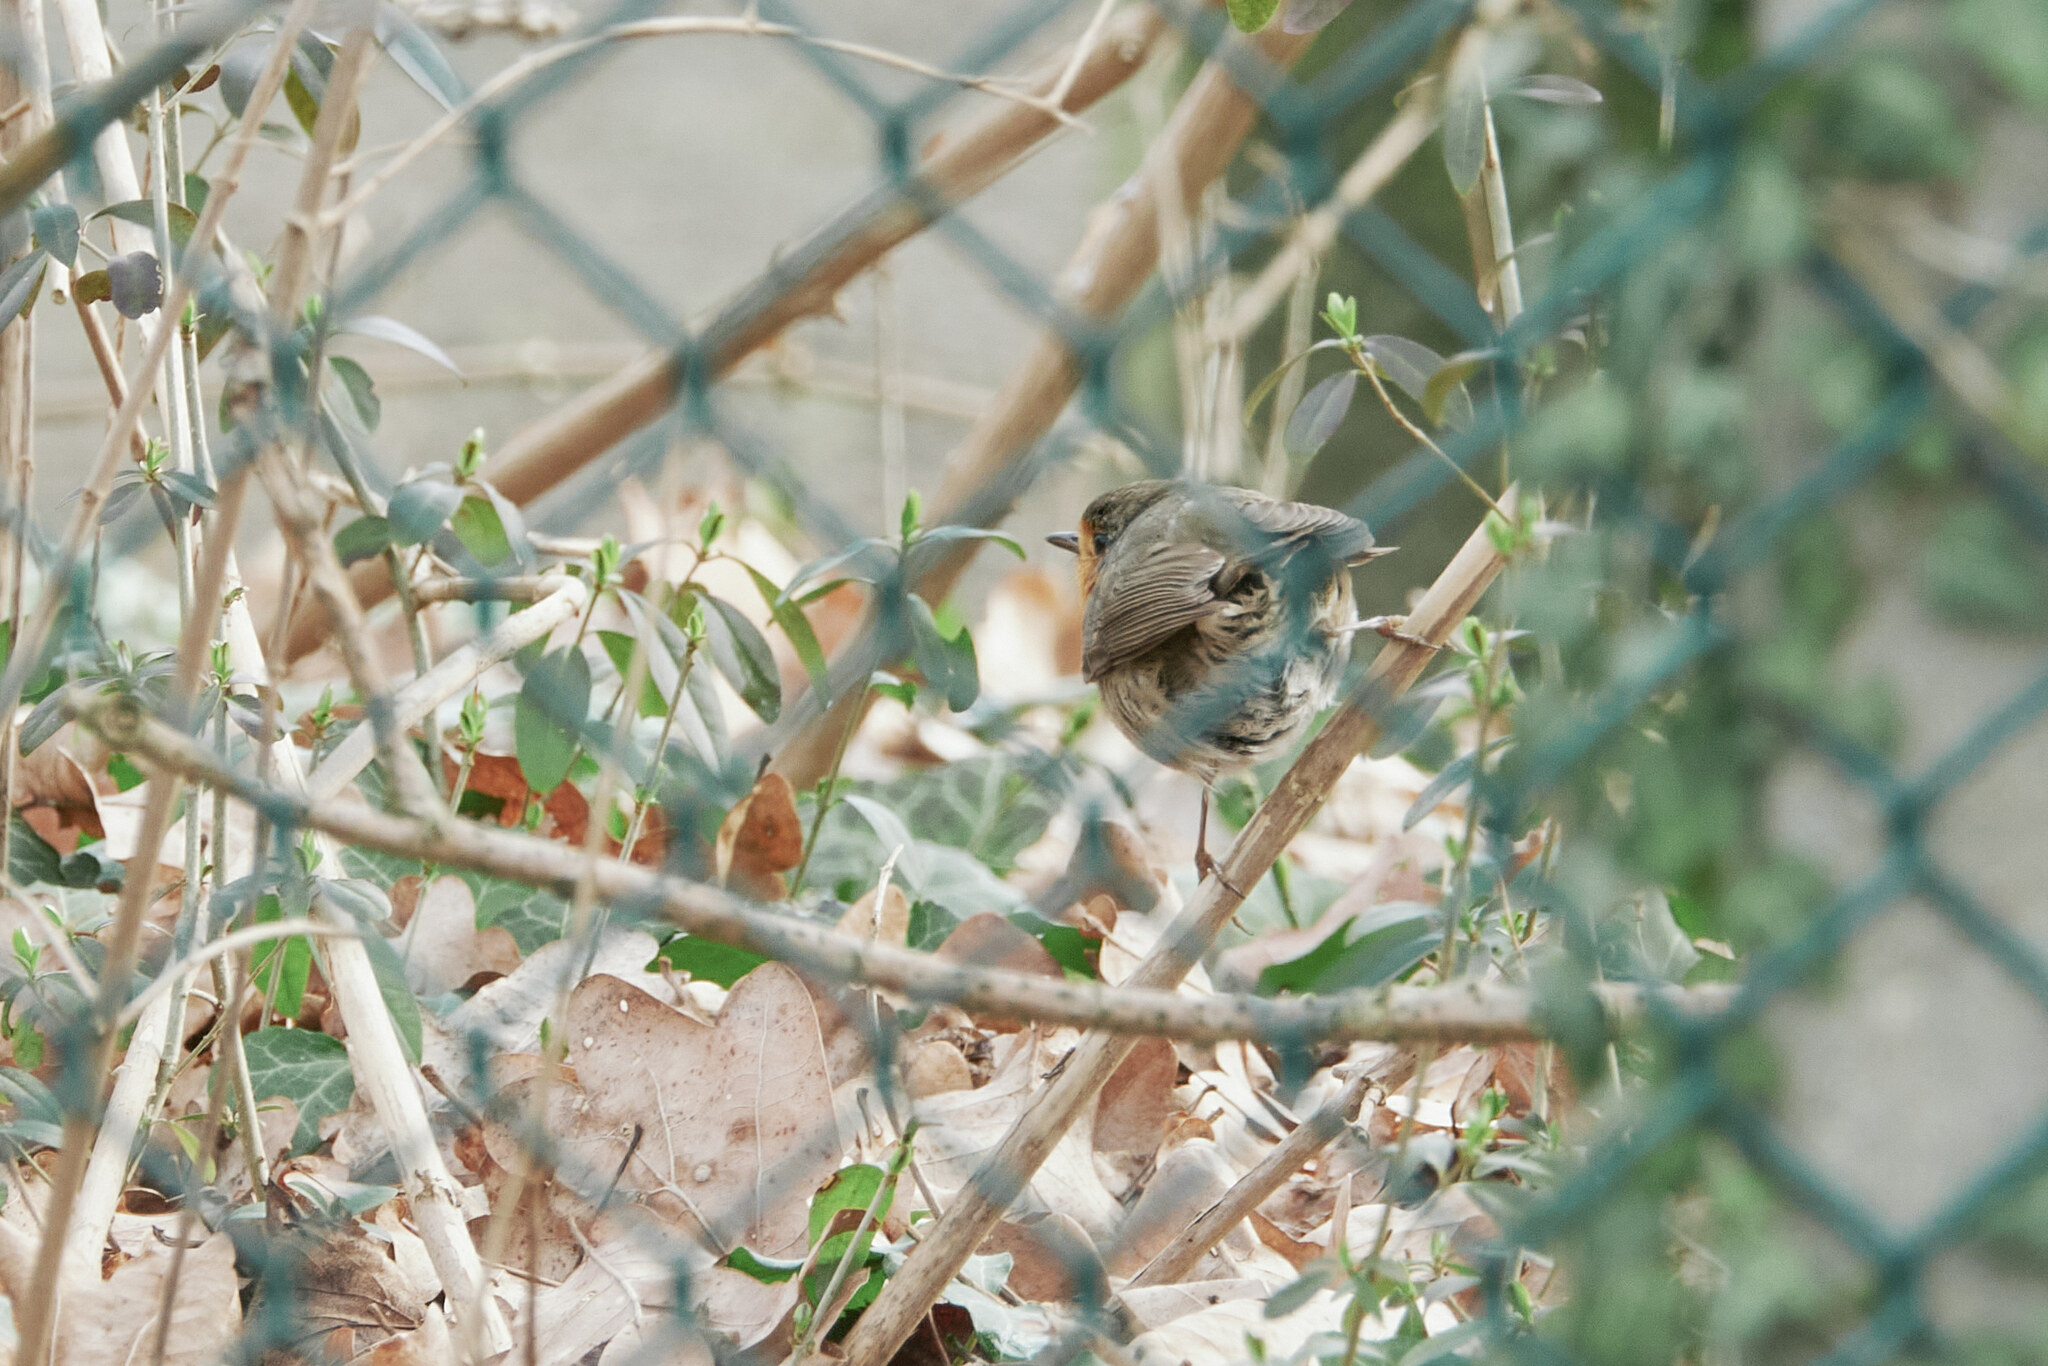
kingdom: Animalia
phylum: Chordata
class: Aves
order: Passeriformes
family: Muscicapidae
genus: Erithacus
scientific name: Erithacus rubecula
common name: European robin
